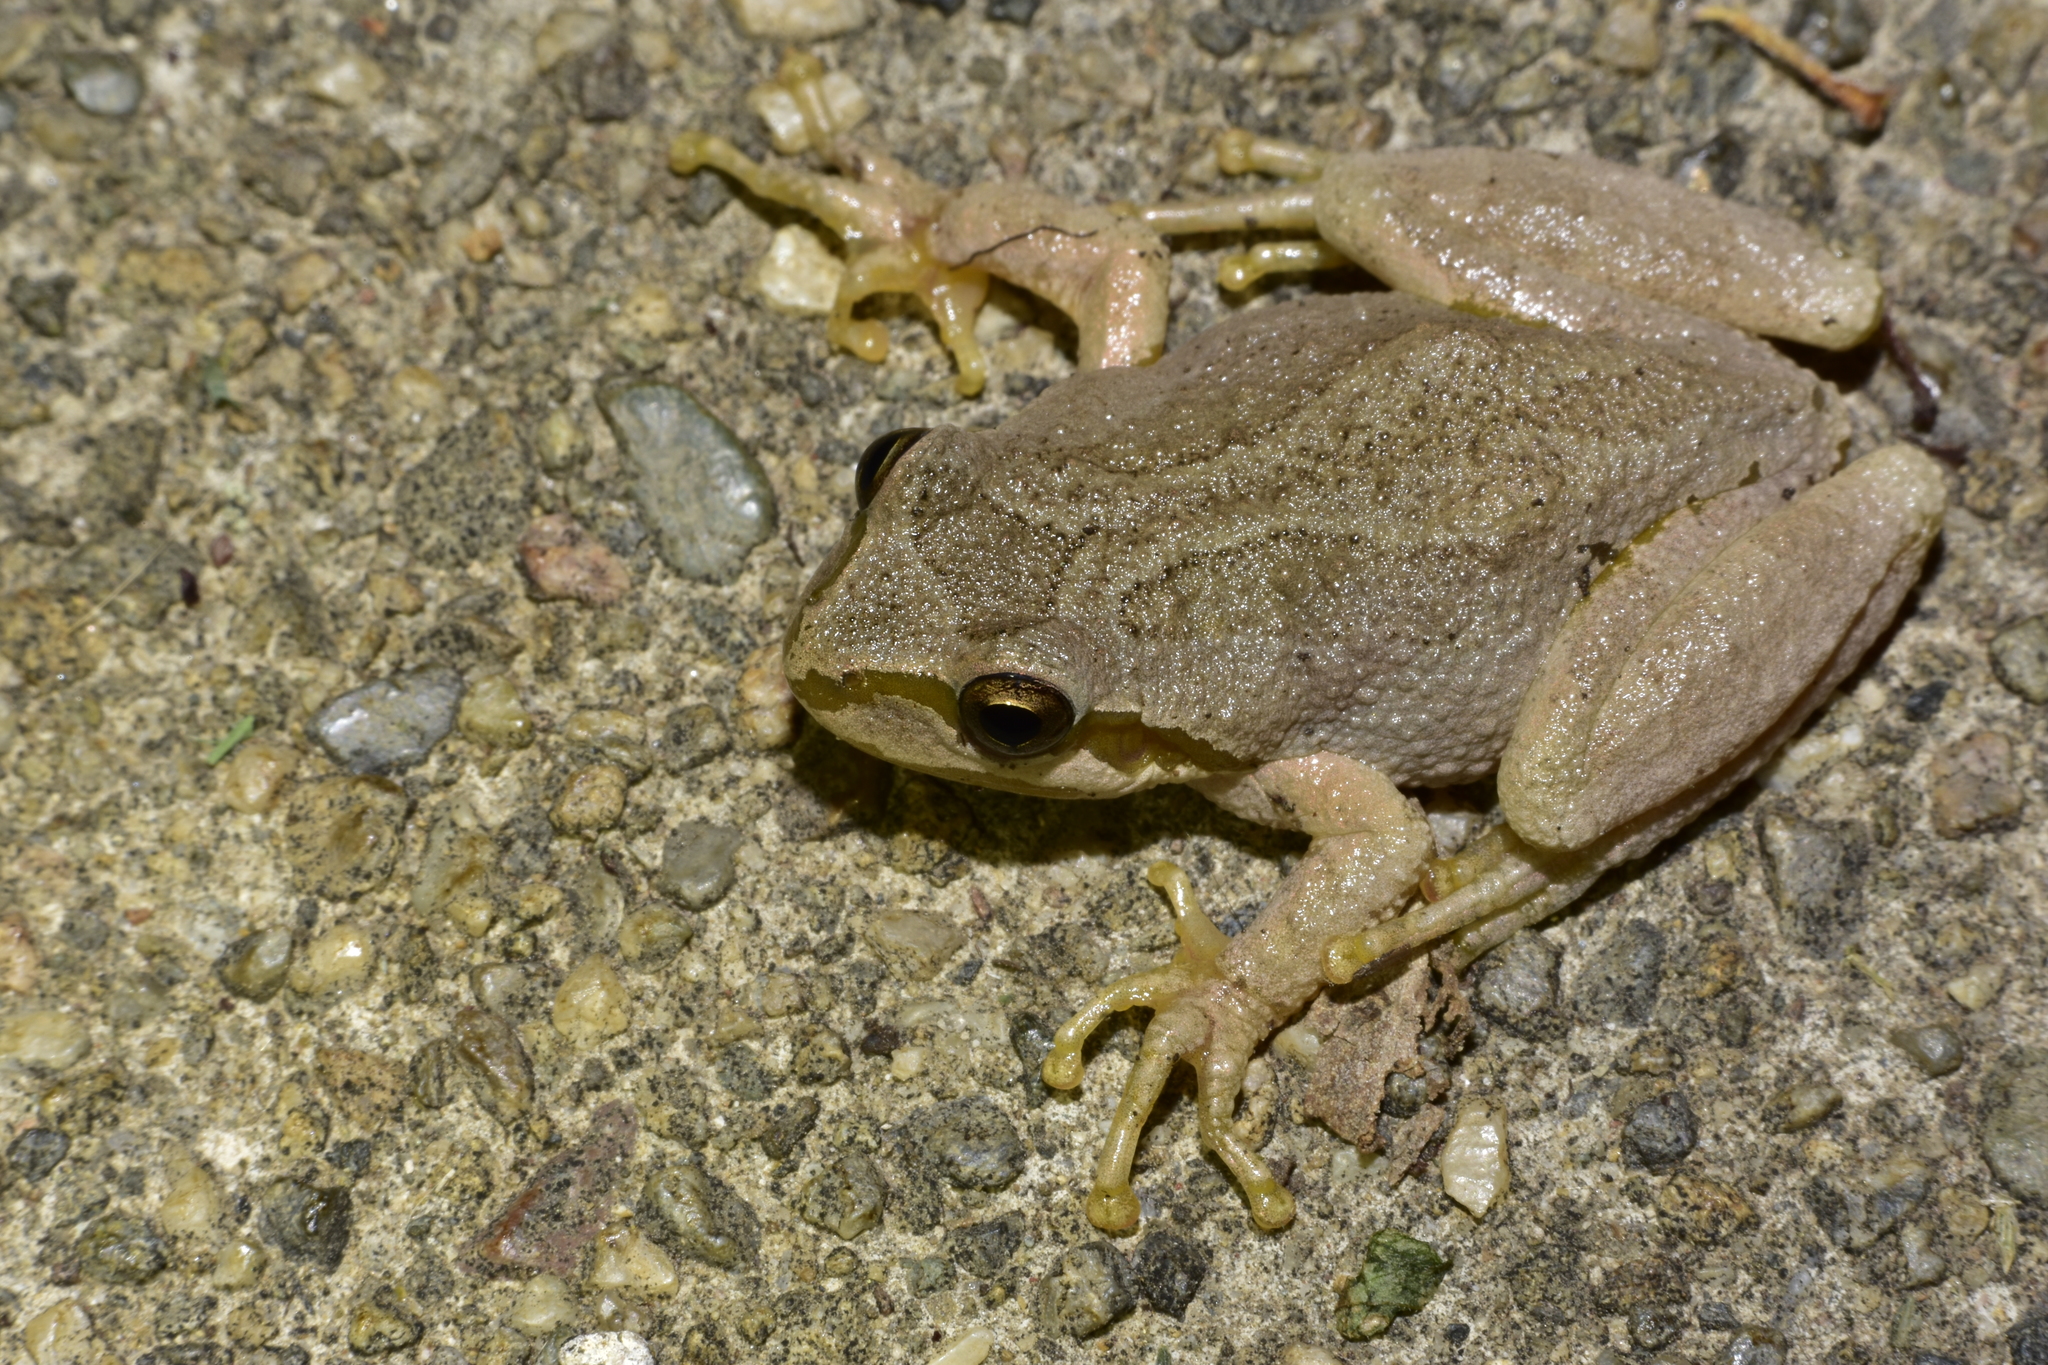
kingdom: Animalia
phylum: Chordata
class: Amphibia
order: Anura
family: Hylidae
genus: Pseudacris
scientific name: Pseudacris regilla
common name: Pacific chorus frog
